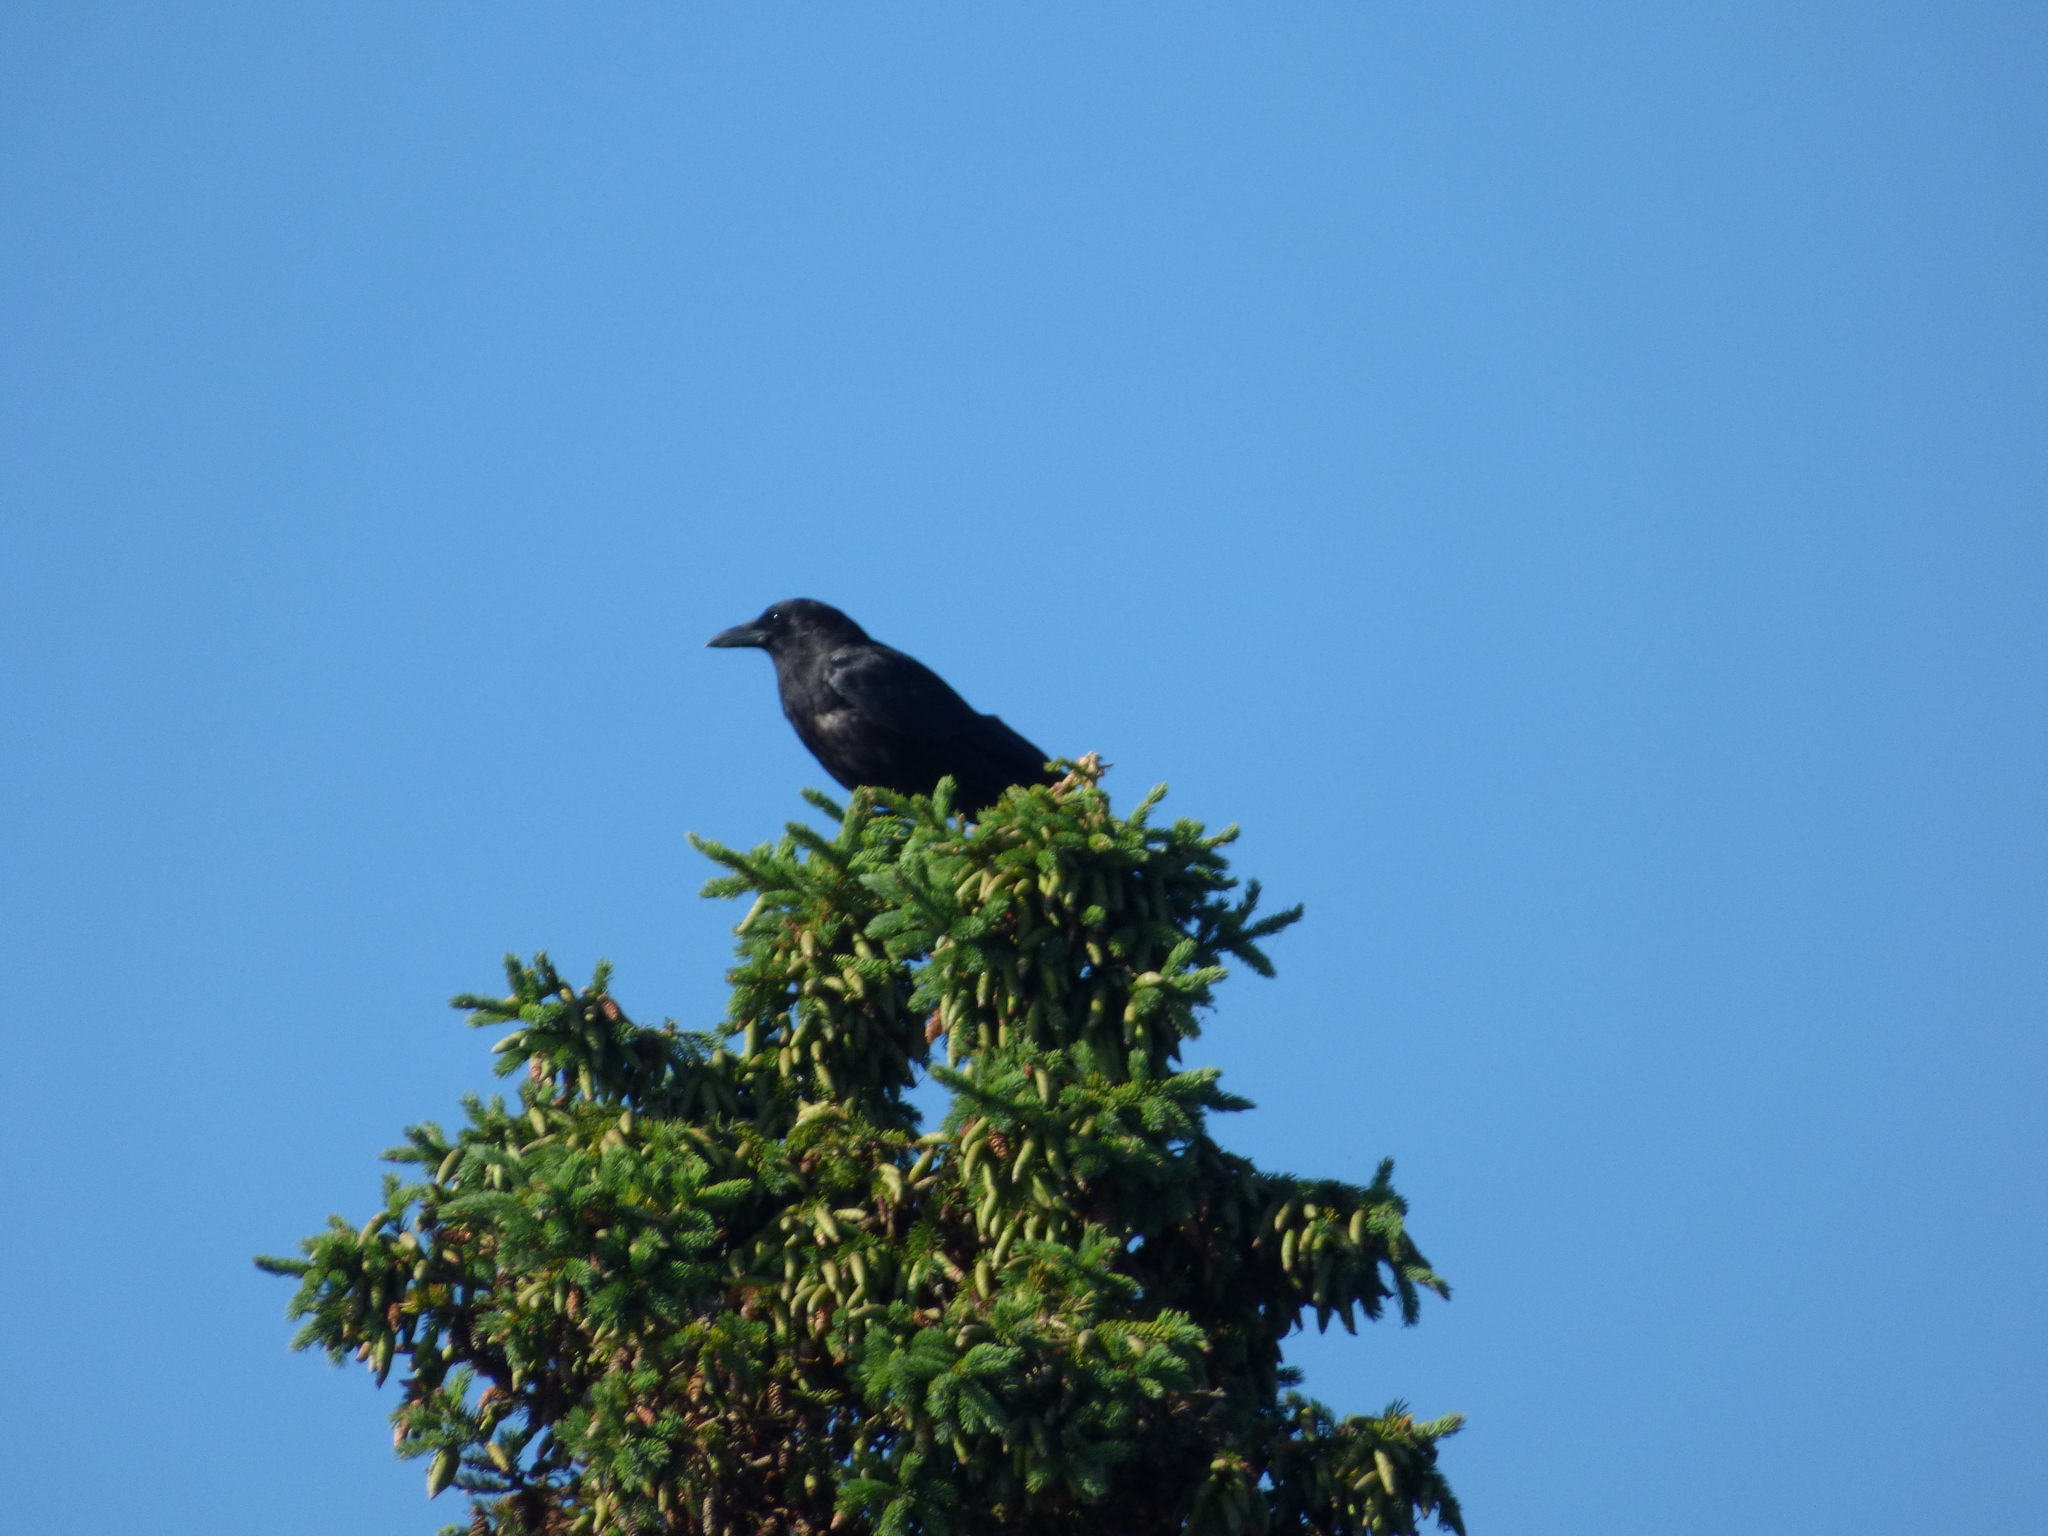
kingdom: Animalia
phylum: Chordata
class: Aves
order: Passeriformes
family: Corvidae
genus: Corvus
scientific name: Corvus brachyrhynchos
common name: American crow
